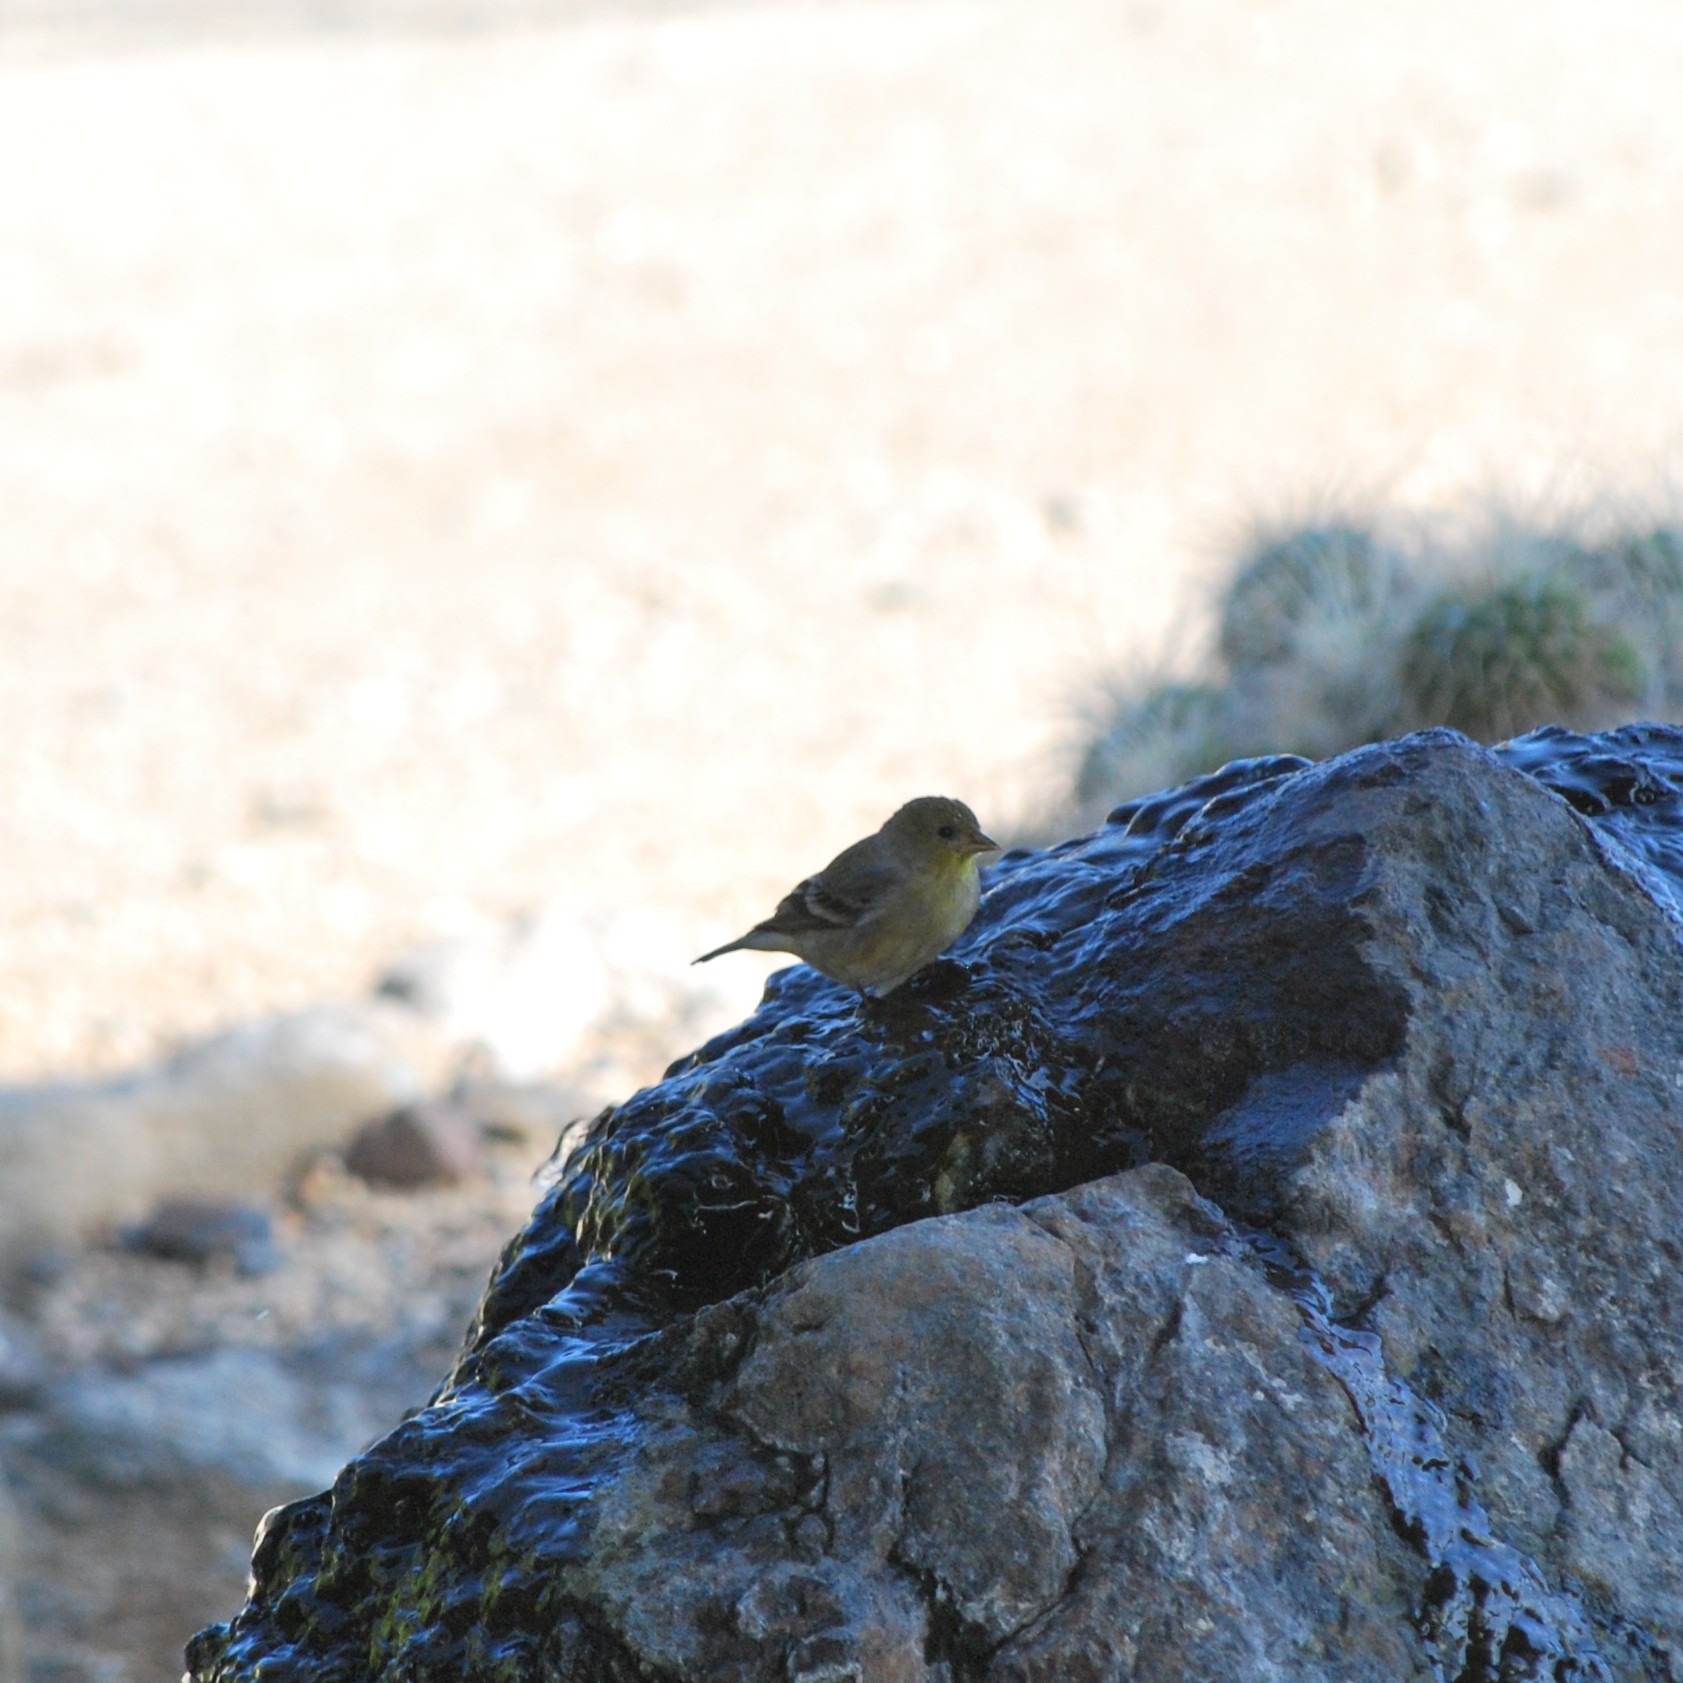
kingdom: Animalia
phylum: Chordata
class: Aves
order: Passeriformes
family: Fringillidae
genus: Spinus
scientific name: Spinus psaltria
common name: Lesser goldfinch
